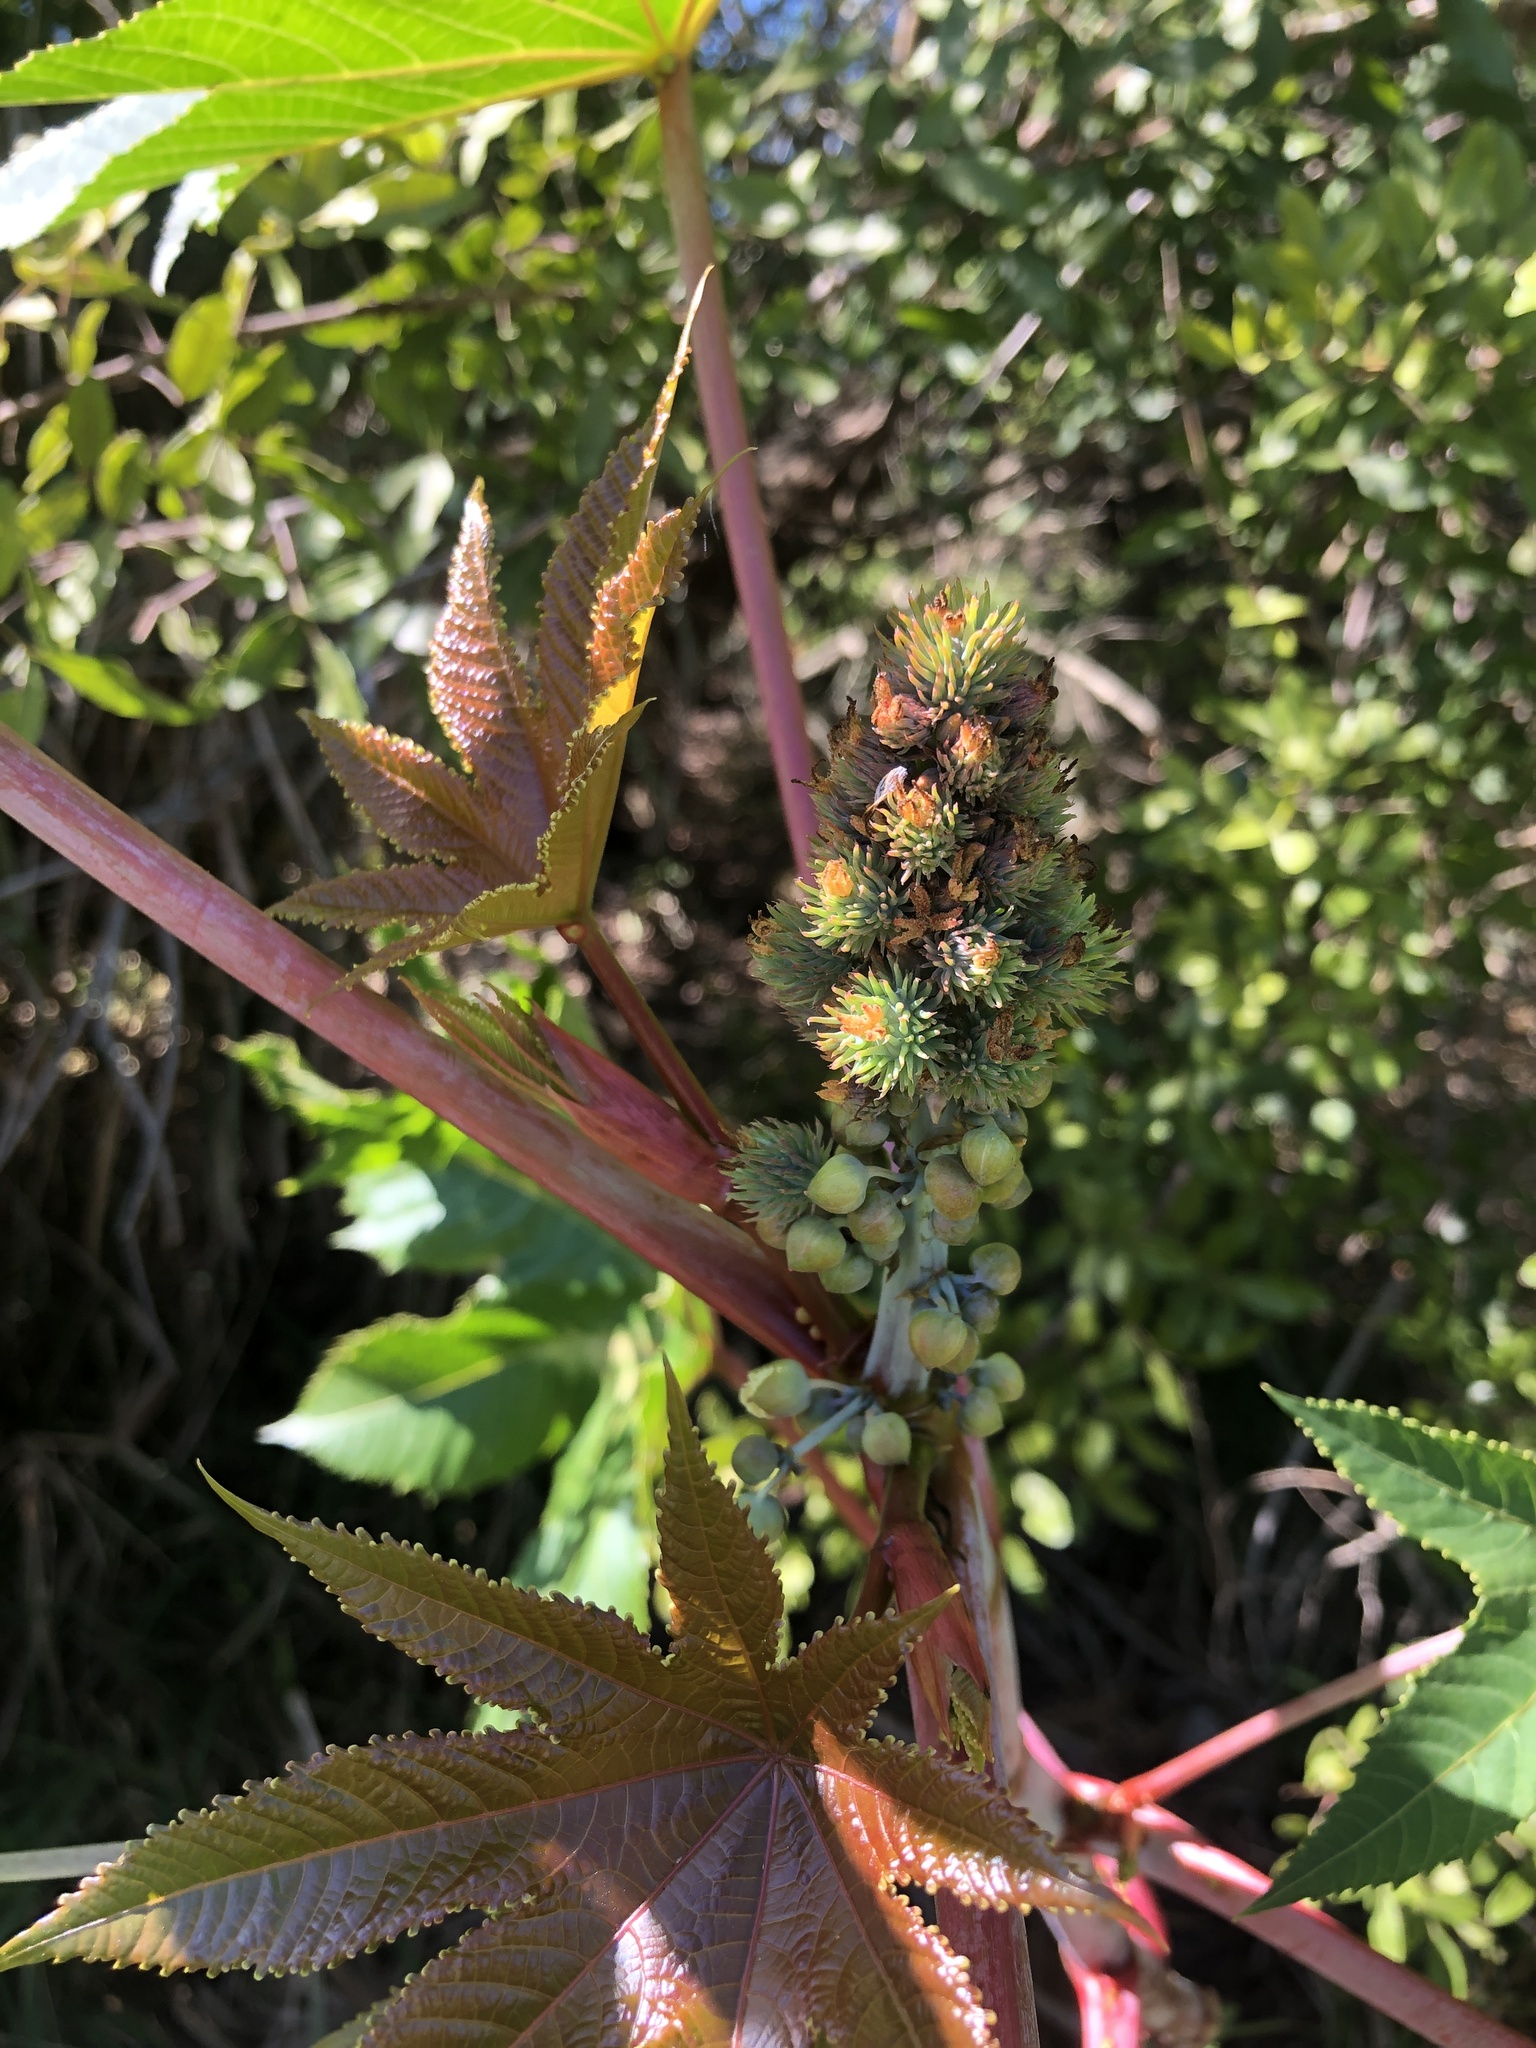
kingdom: Plantae
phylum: Tracheophyta
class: Magnoliopsida
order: Malpighiales
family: Euphorbiaceae
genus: Ricinus
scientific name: Ricinus communis
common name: Castor-oil-plant
